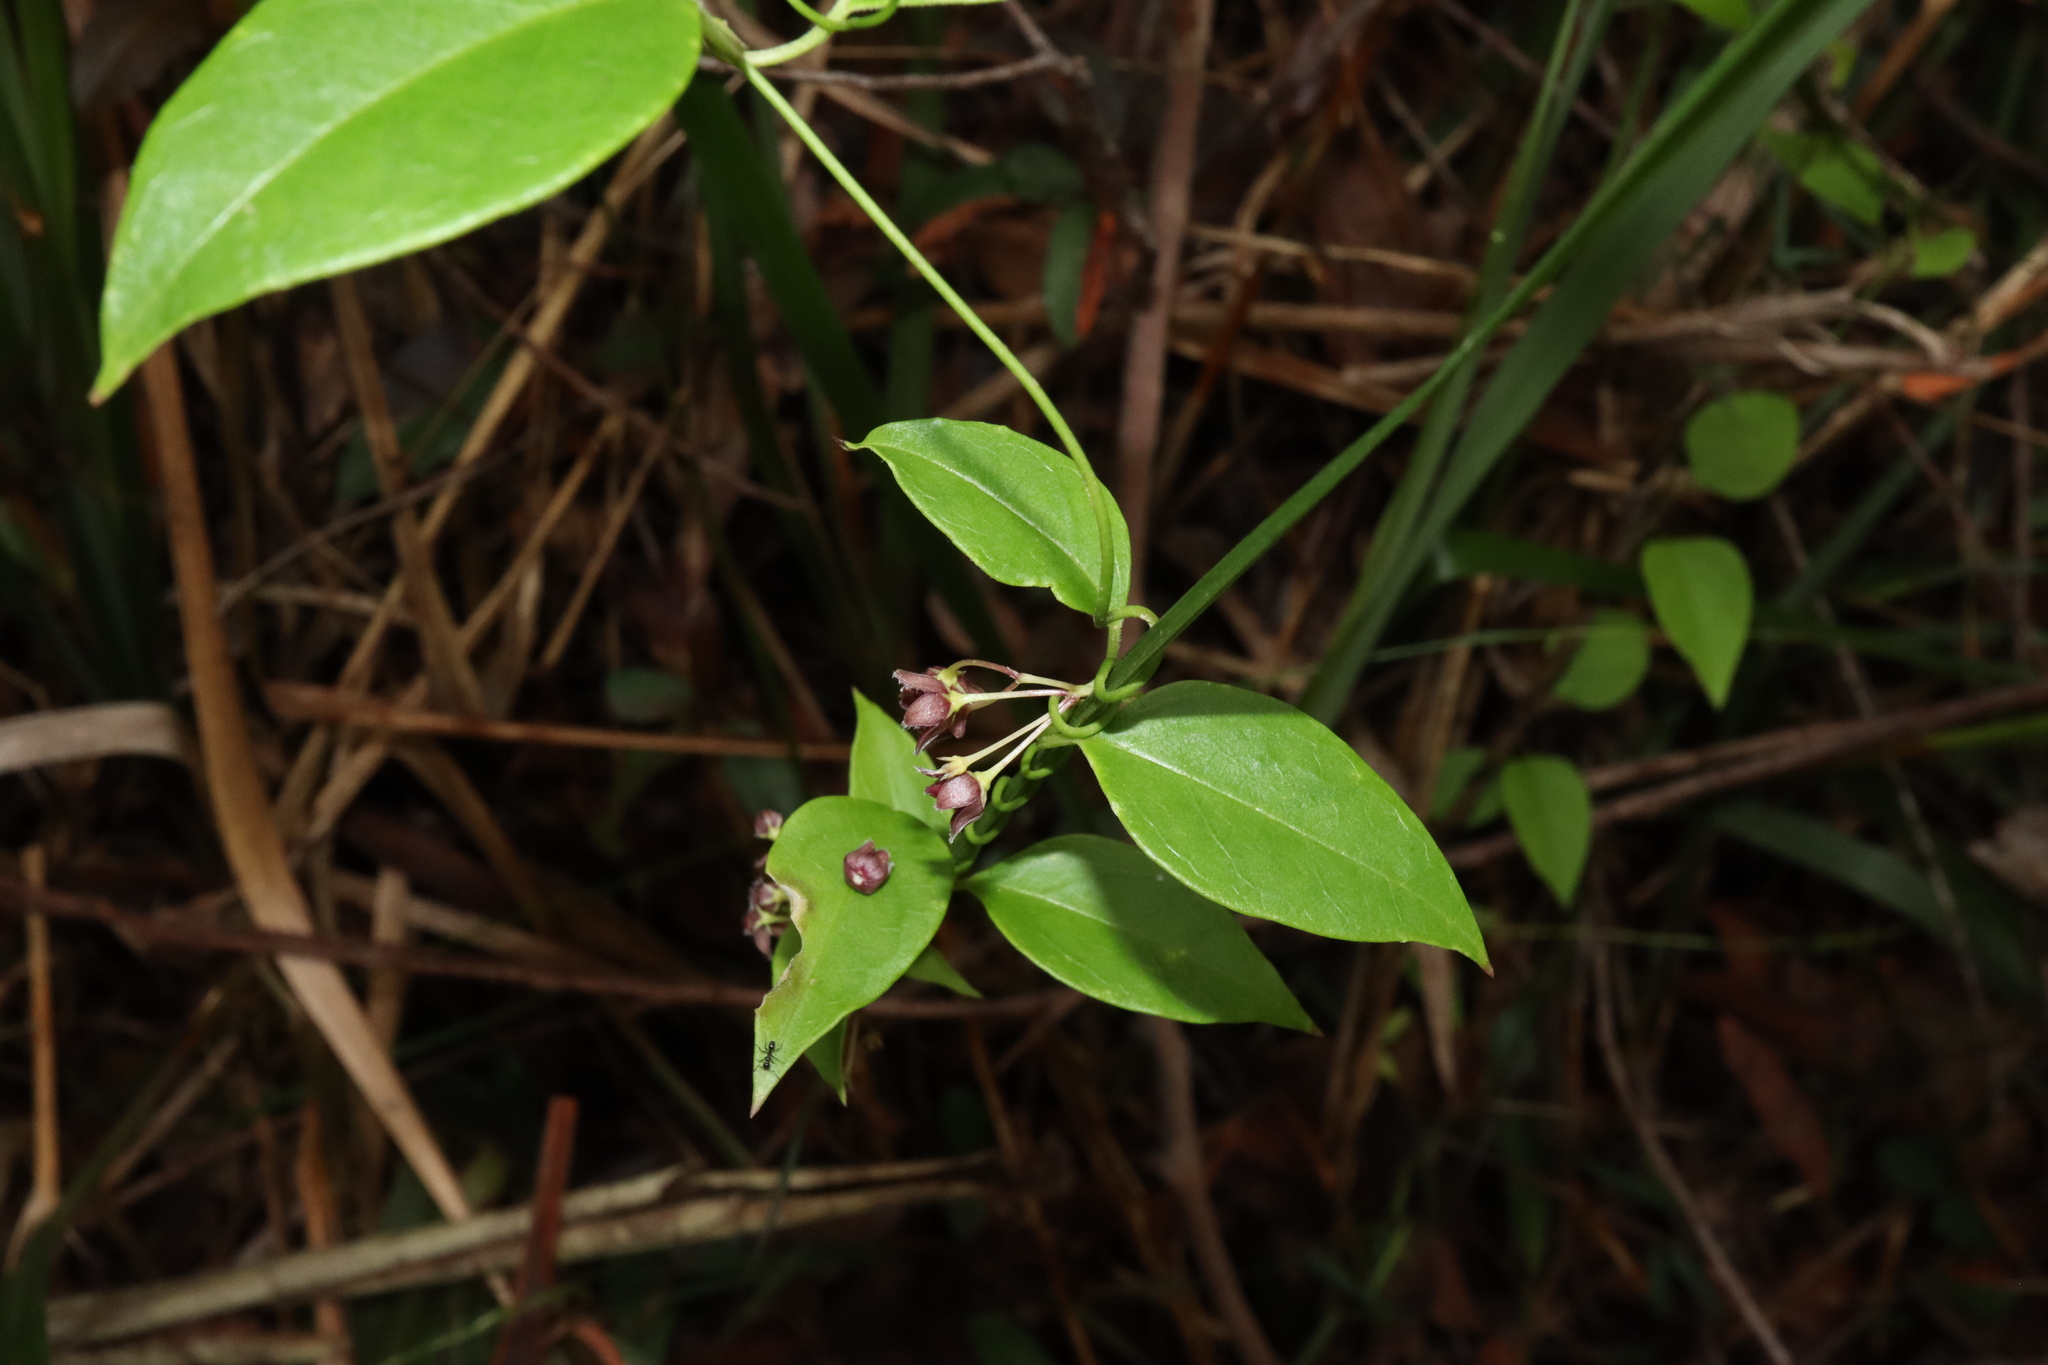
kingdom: Plantae
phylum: Tracheophyta
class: Magnoliopsida
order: Gentianales
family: Apocynaceae
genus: Vincetoxicum
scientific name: Vincetoxicum barbatum
